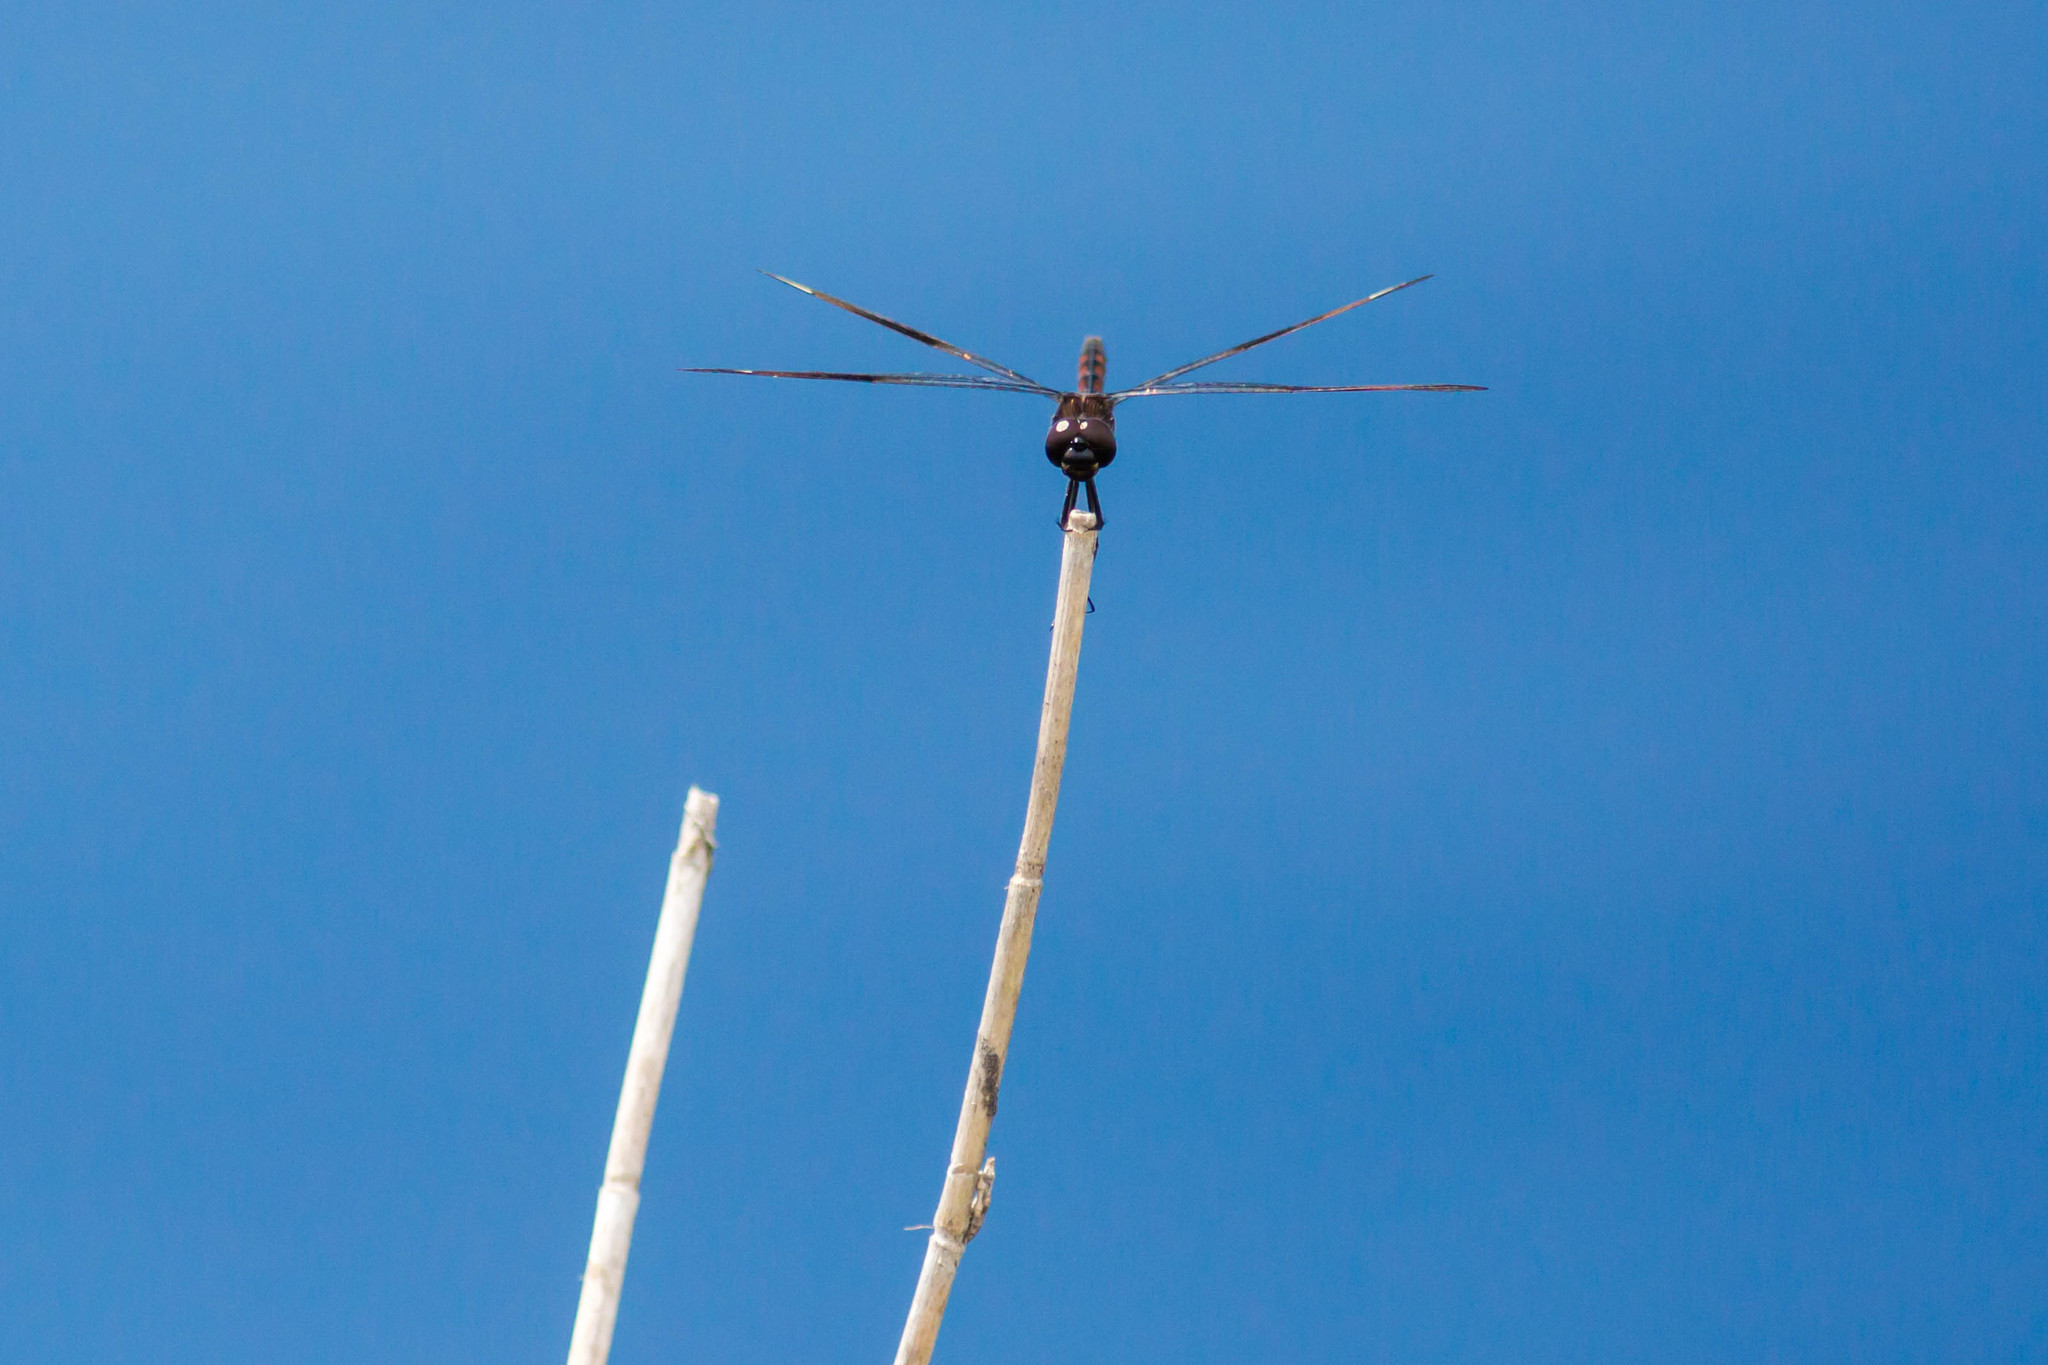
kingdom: Animalia
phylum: Arthropoda
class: Insecta
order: Odonata
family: Libellulidae
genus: Brachymesia
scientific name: Brachymesia gravida
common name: Four-spotted pennant
